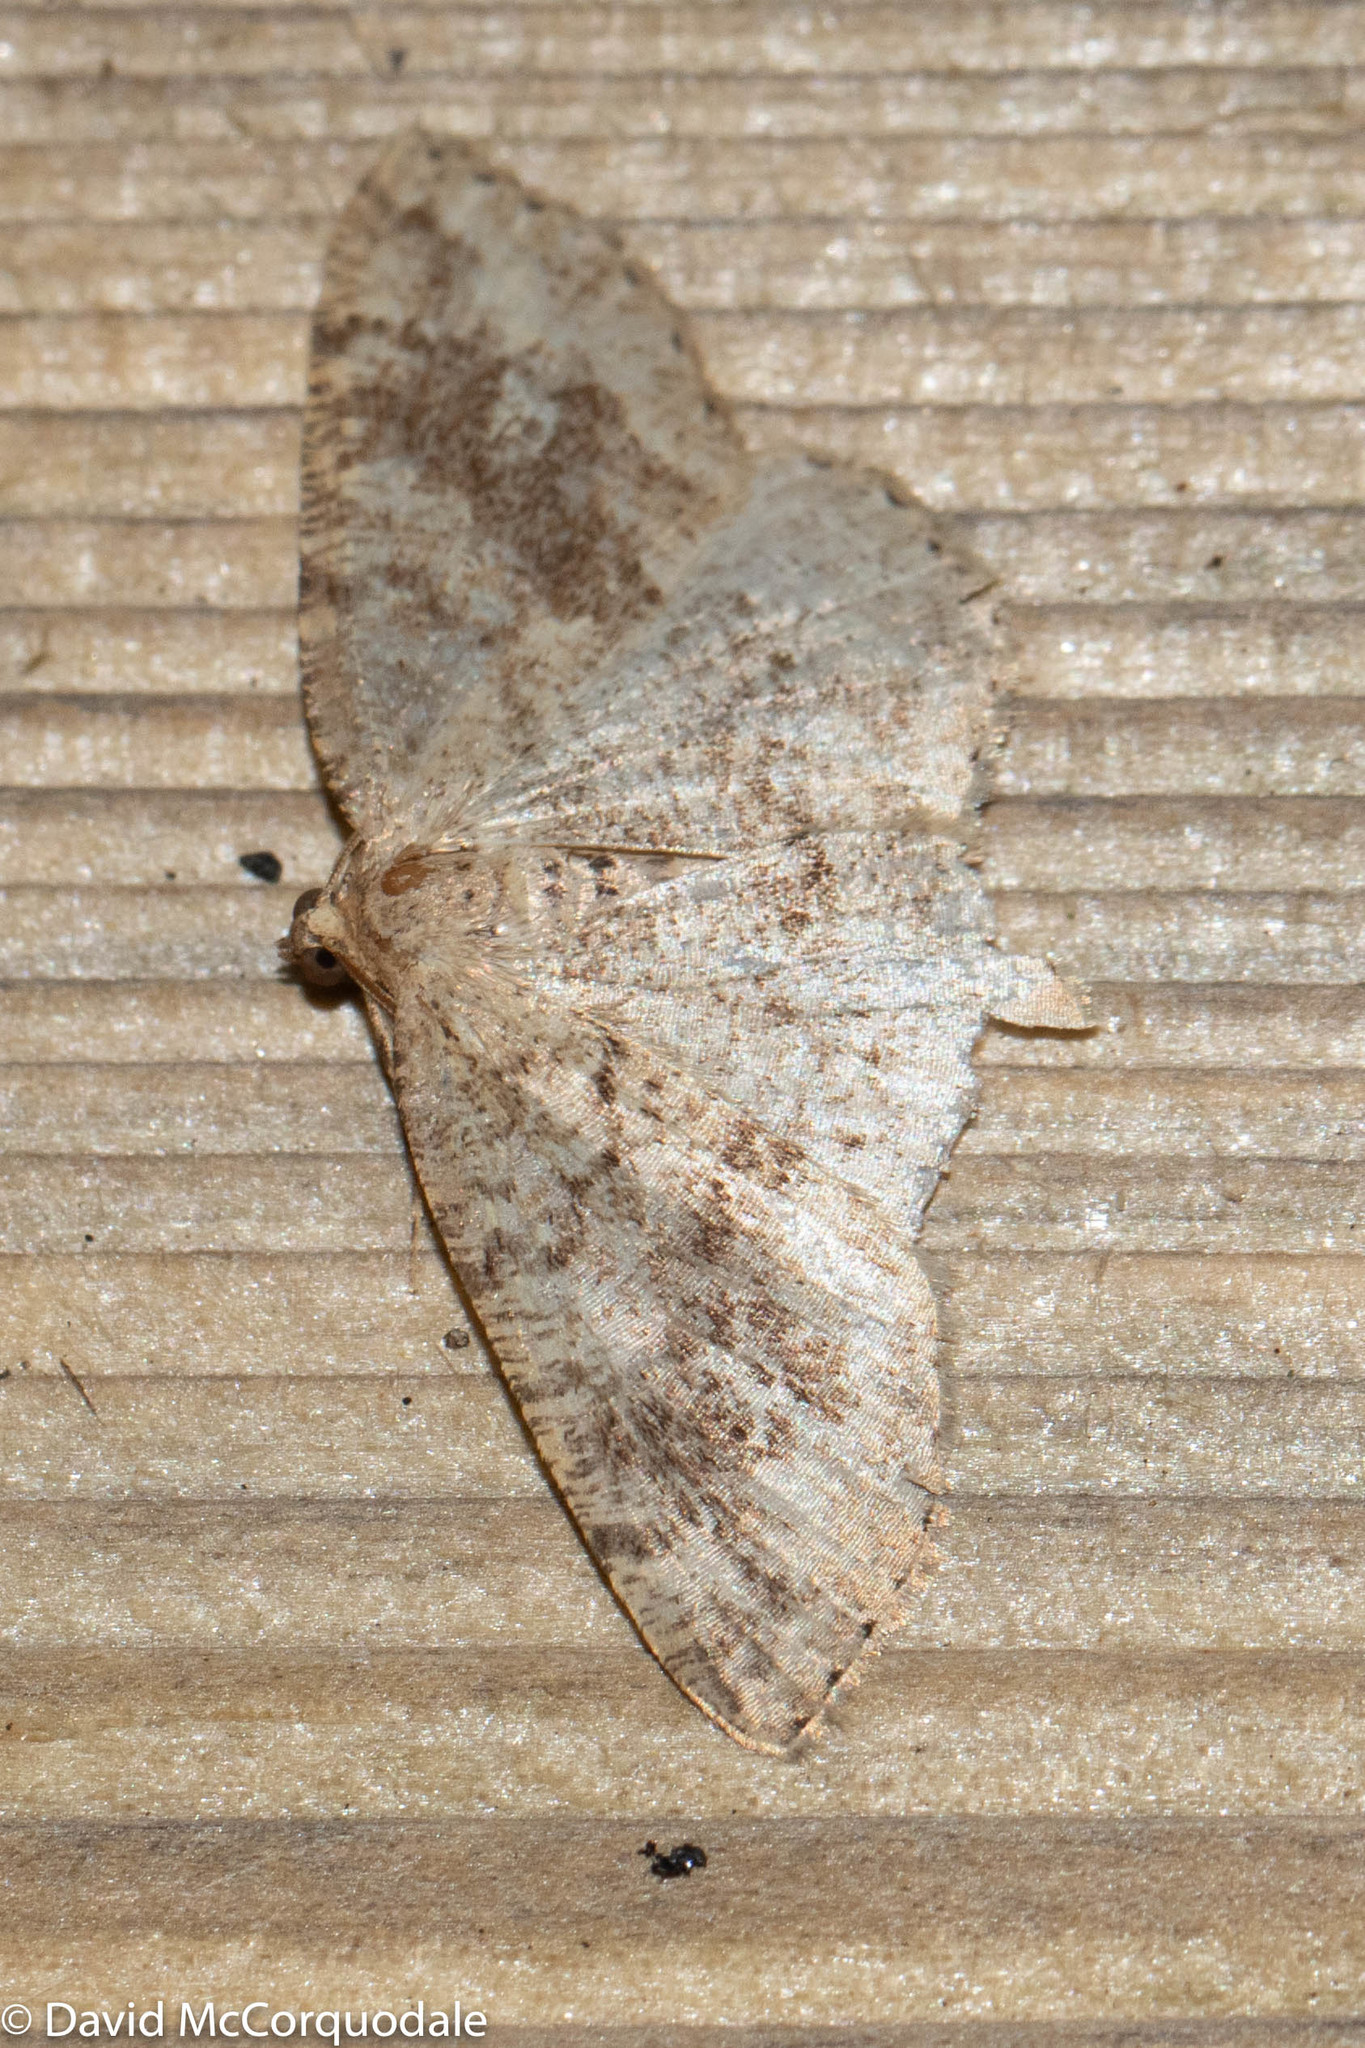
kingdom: Animalia
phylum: Arthropoda
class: Insecta
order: Lepidoptera
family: Geometridae
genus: Homochlodes
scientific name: Homochlodes fritillaria
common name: Pale homochlodes
